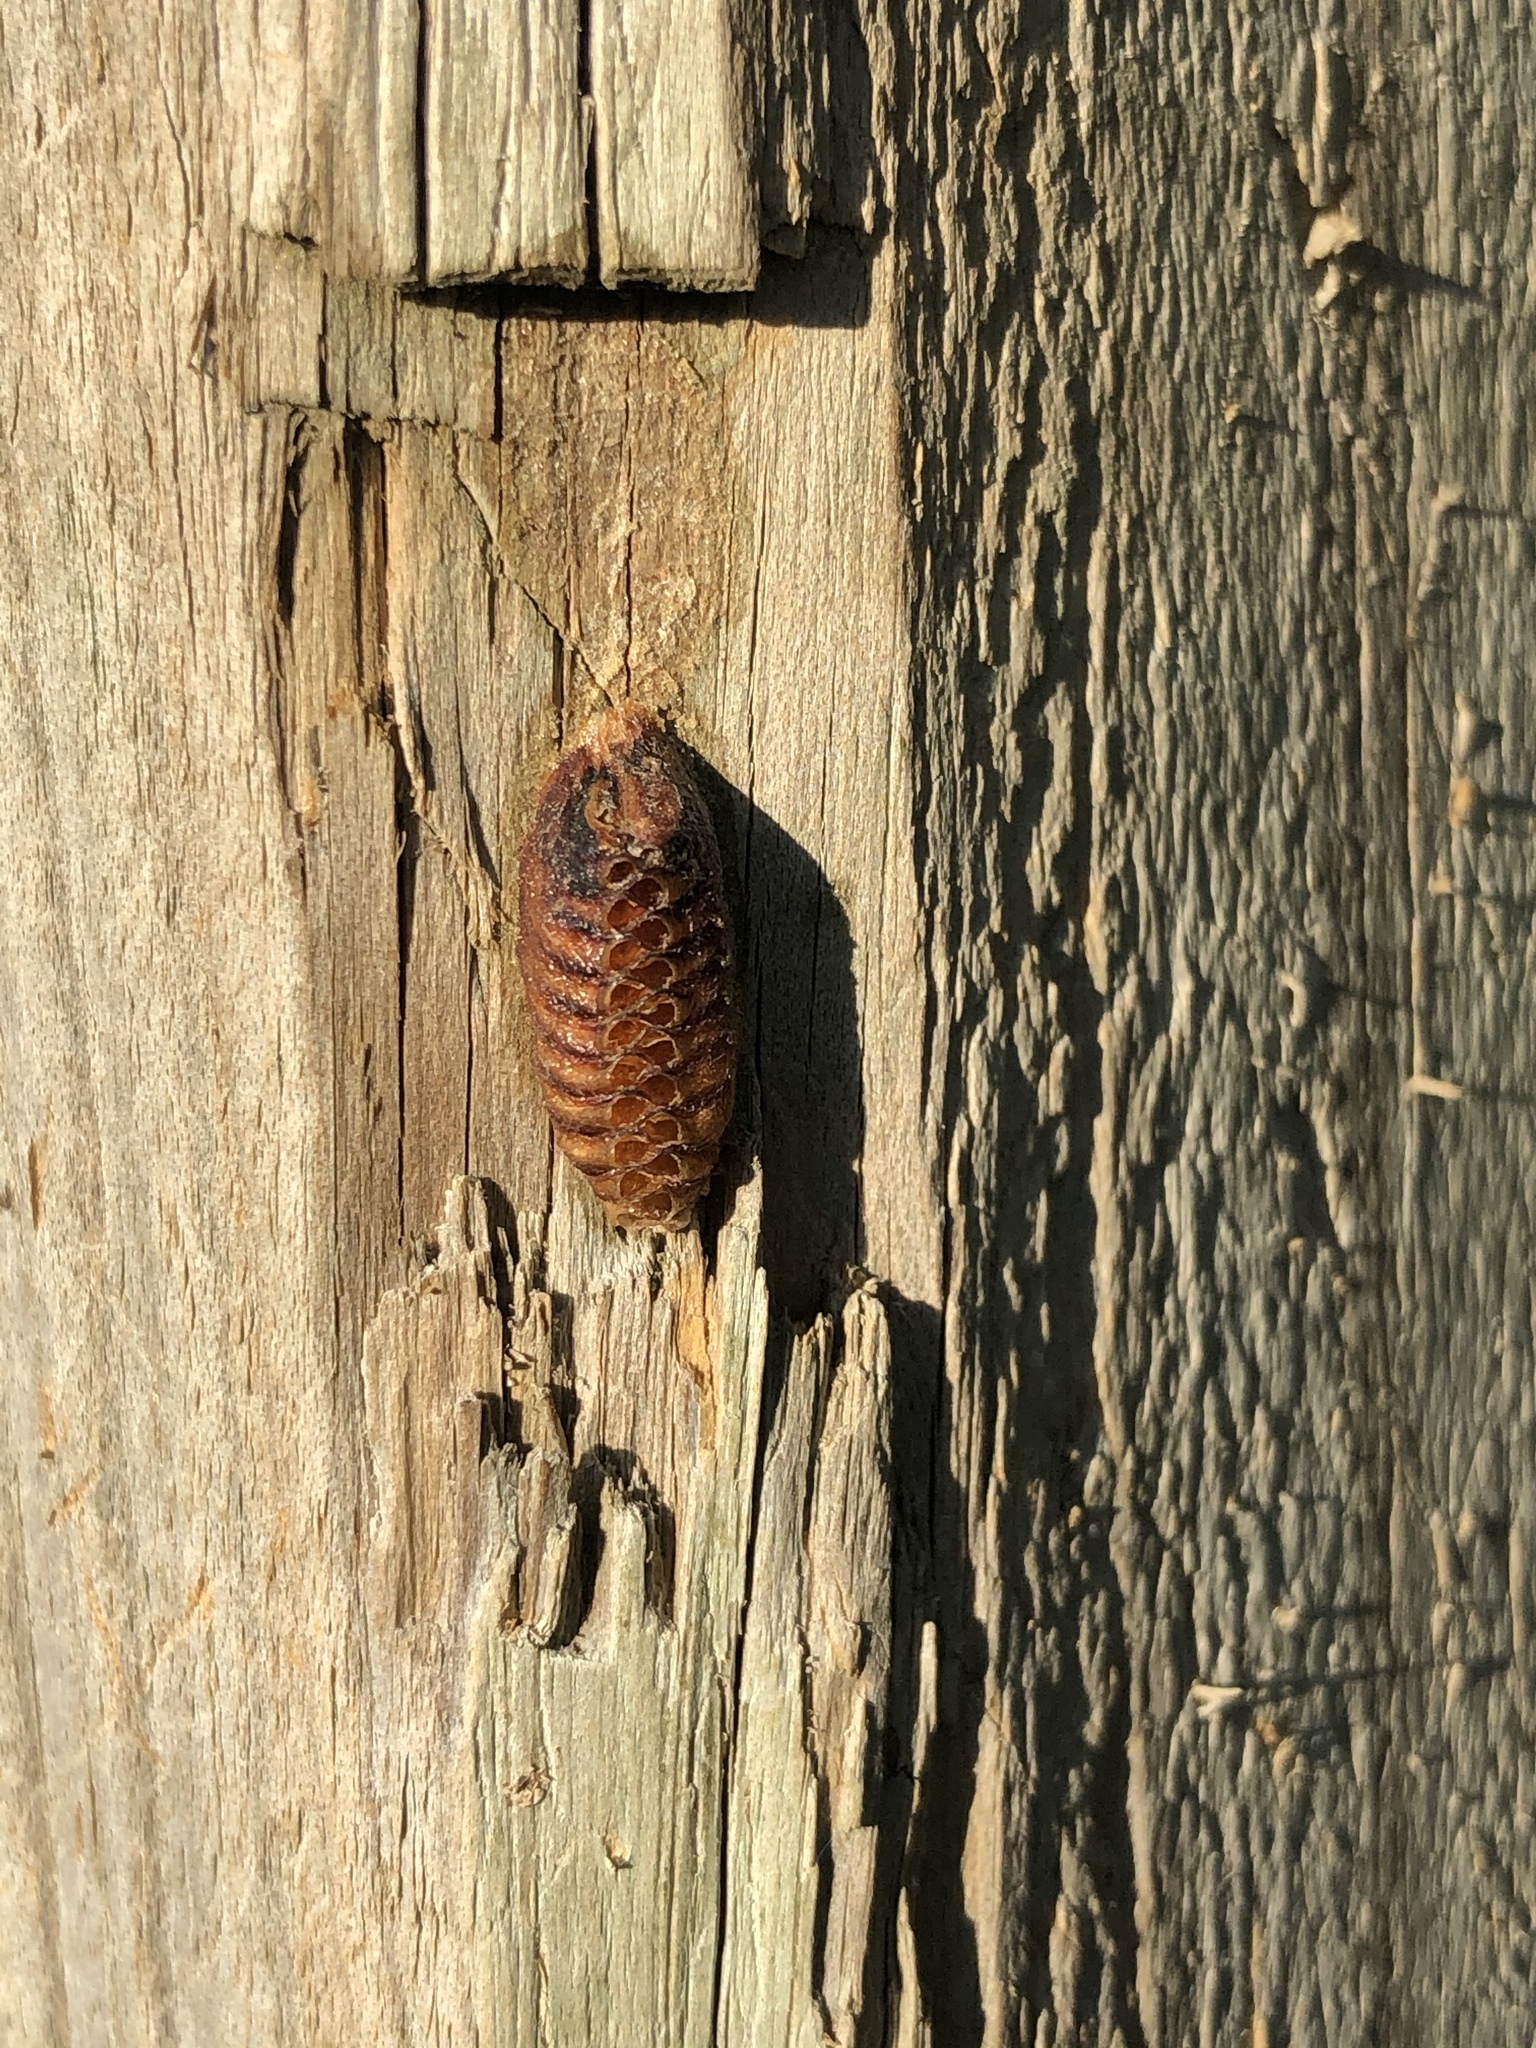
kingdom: Animalia
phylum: Arthropoda
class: Insecta
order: Mantodea
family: Mantidae
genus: Orthodera
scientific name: Orthodera novaezealandiae
